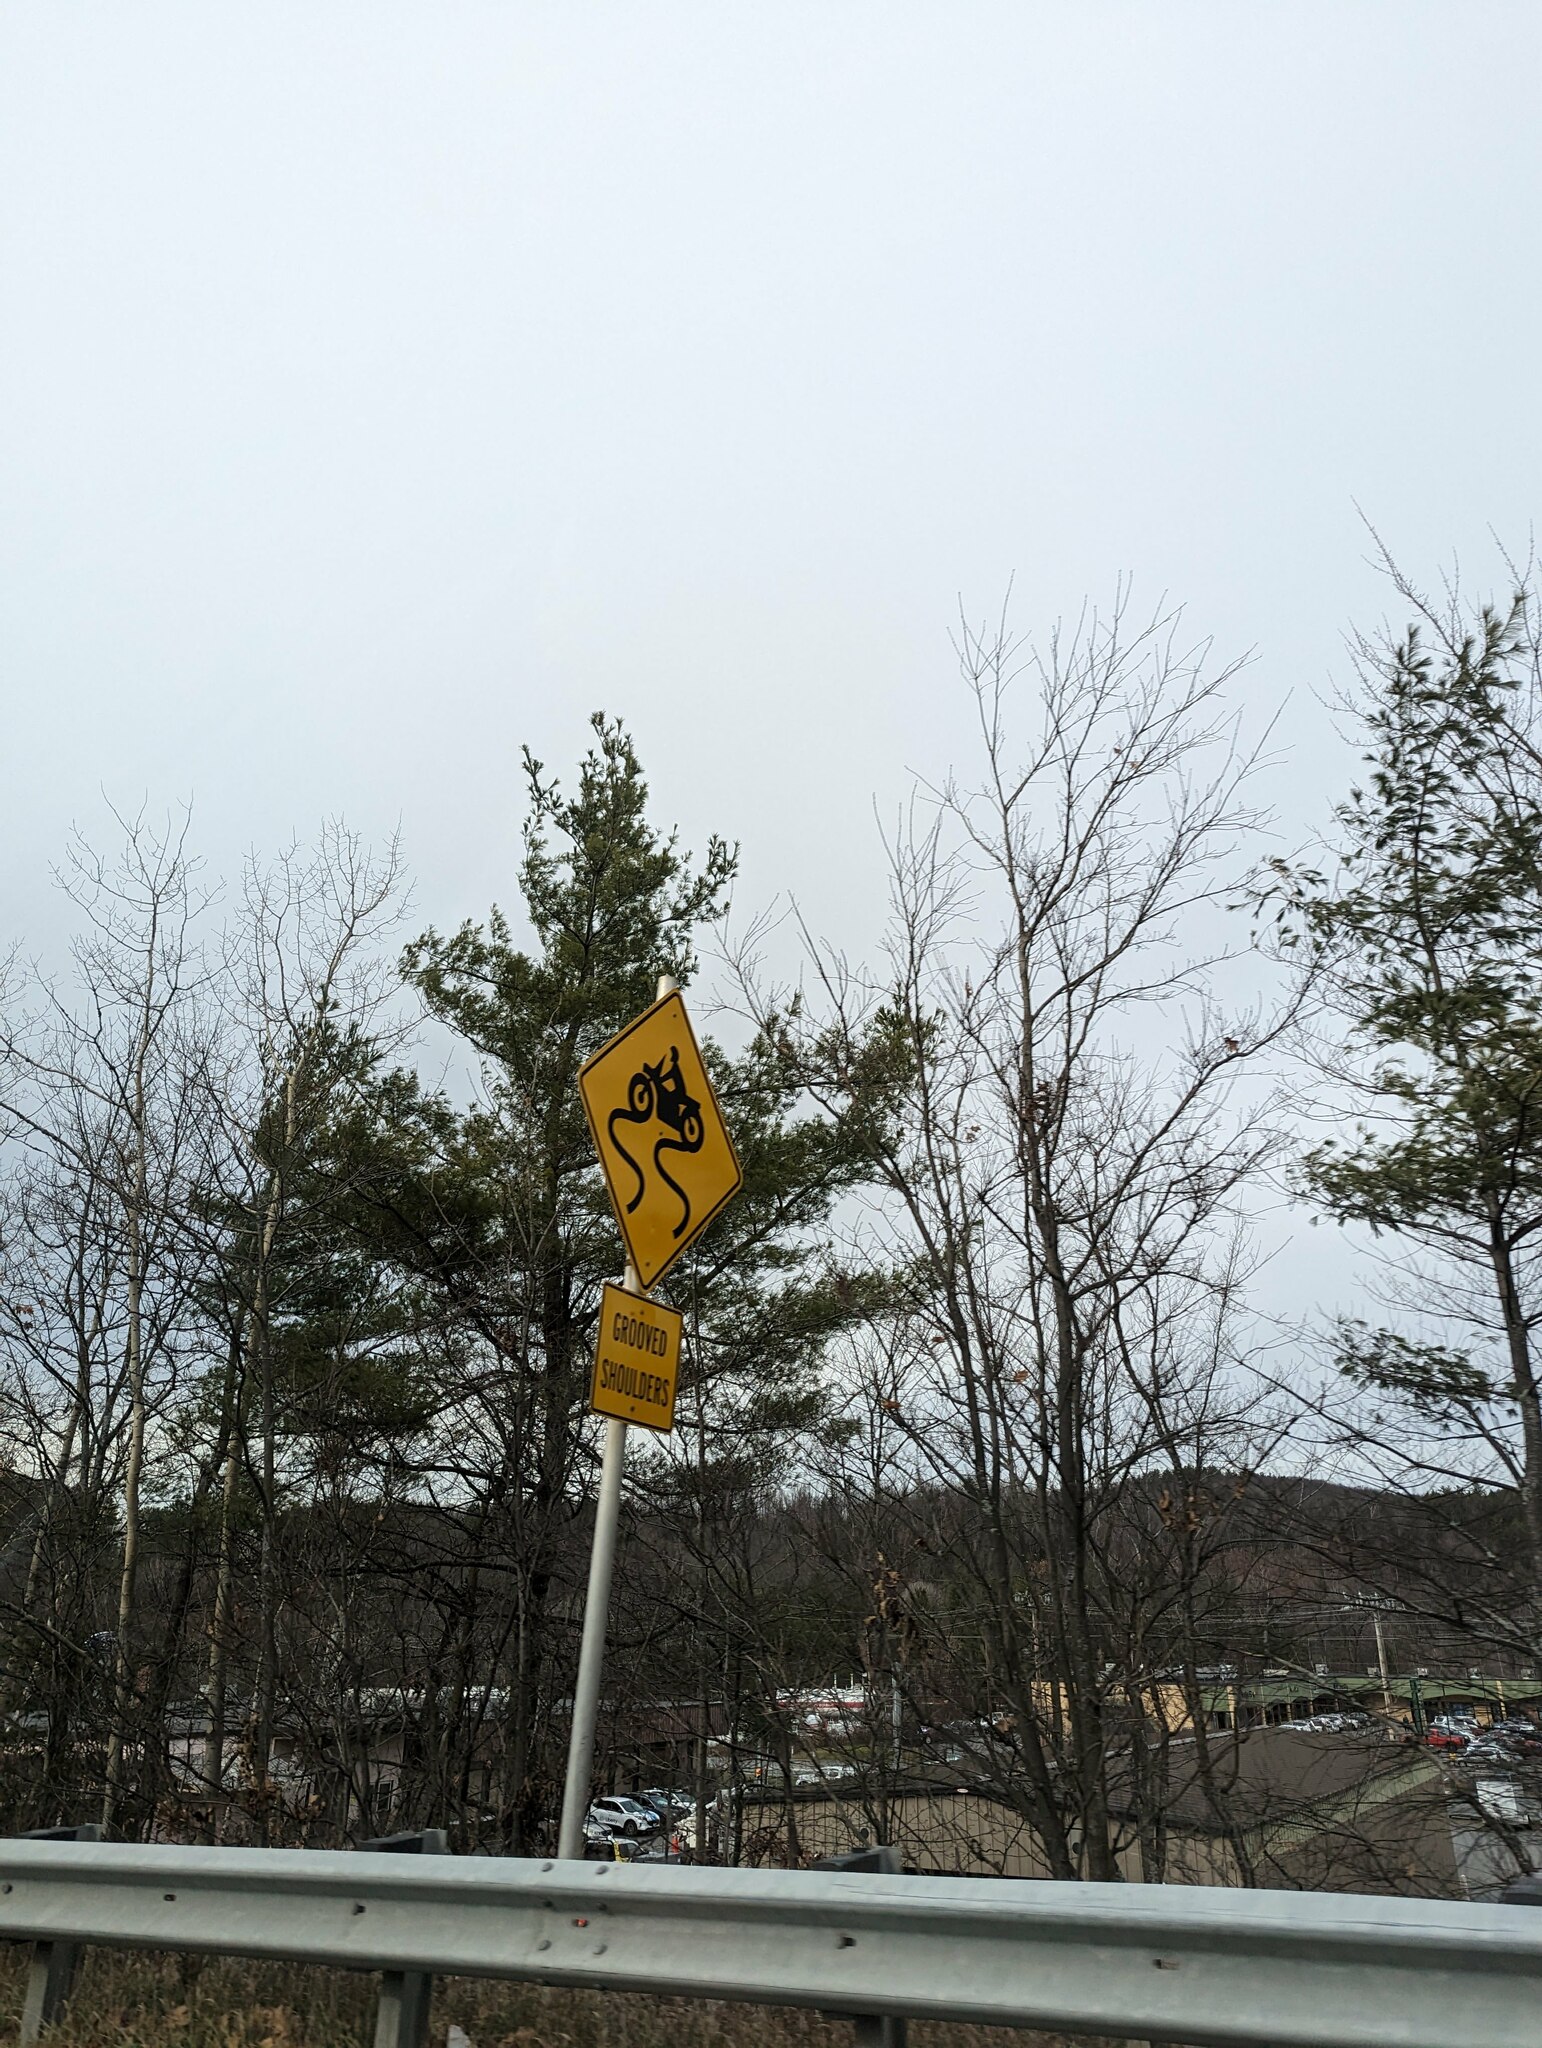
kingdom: Plantae
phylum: Tracheophyta
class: Pinopsida
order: Pinales
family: Pinaceae
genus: Pinus
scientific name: Pinus strobus
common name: Weymouth pine
